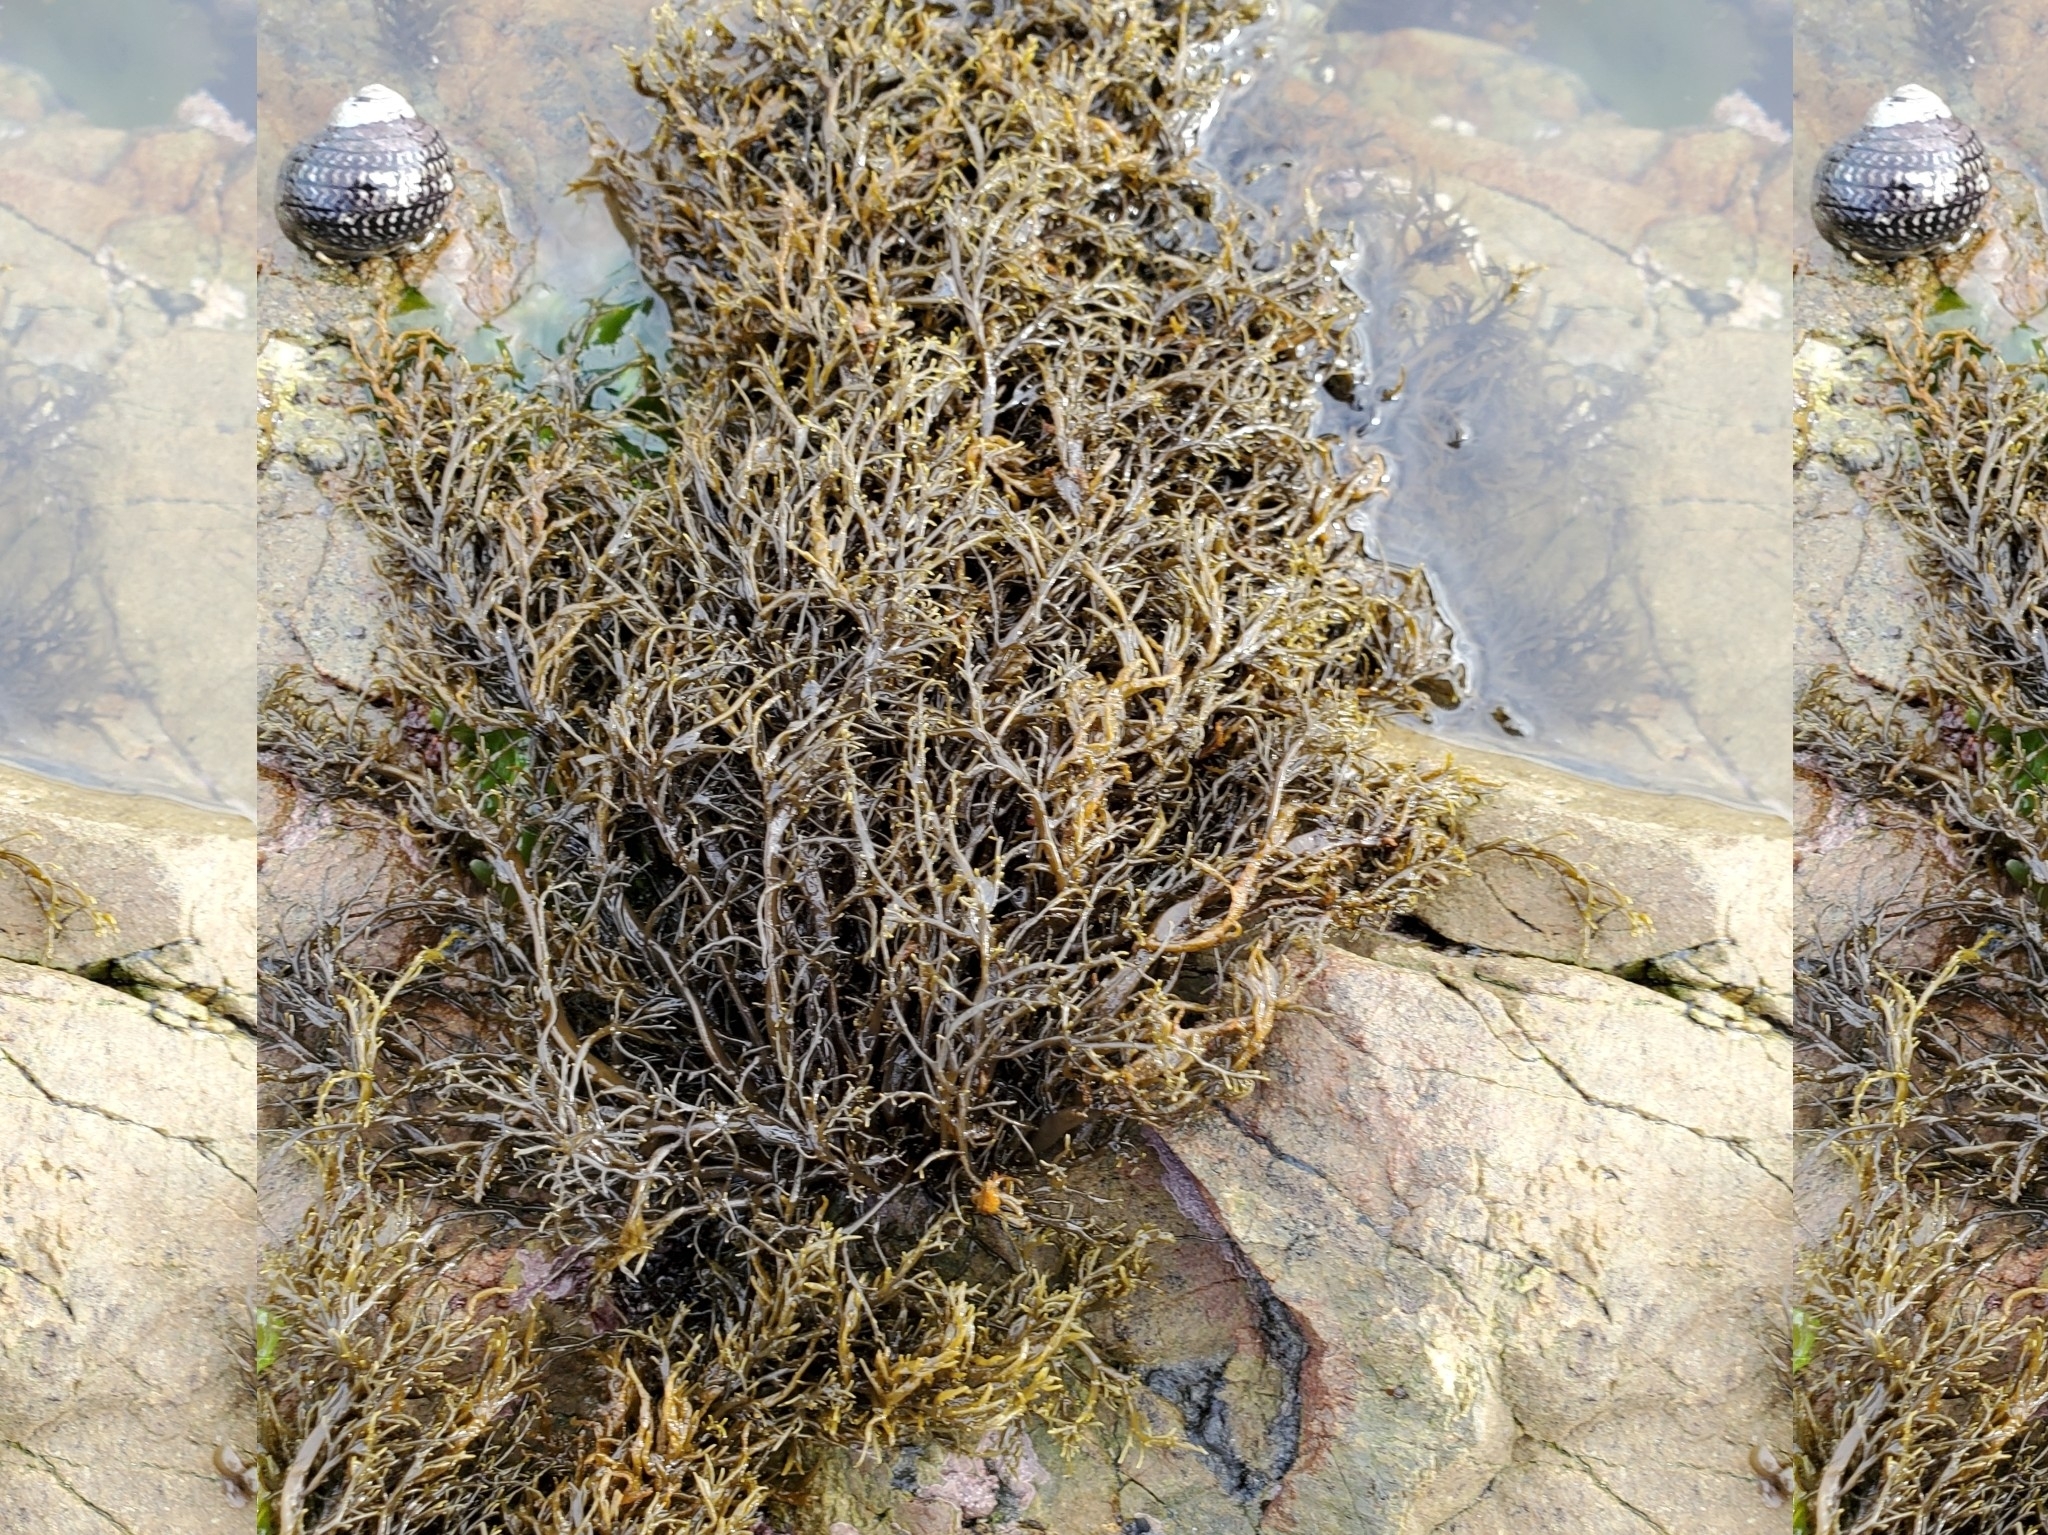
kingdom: Chromista
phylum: Ochrophyta
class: Phaeophyceae
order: Scytothamnales
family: Scytothamnaceae
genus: Scytothamnus
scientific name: Scytothamnus australis
